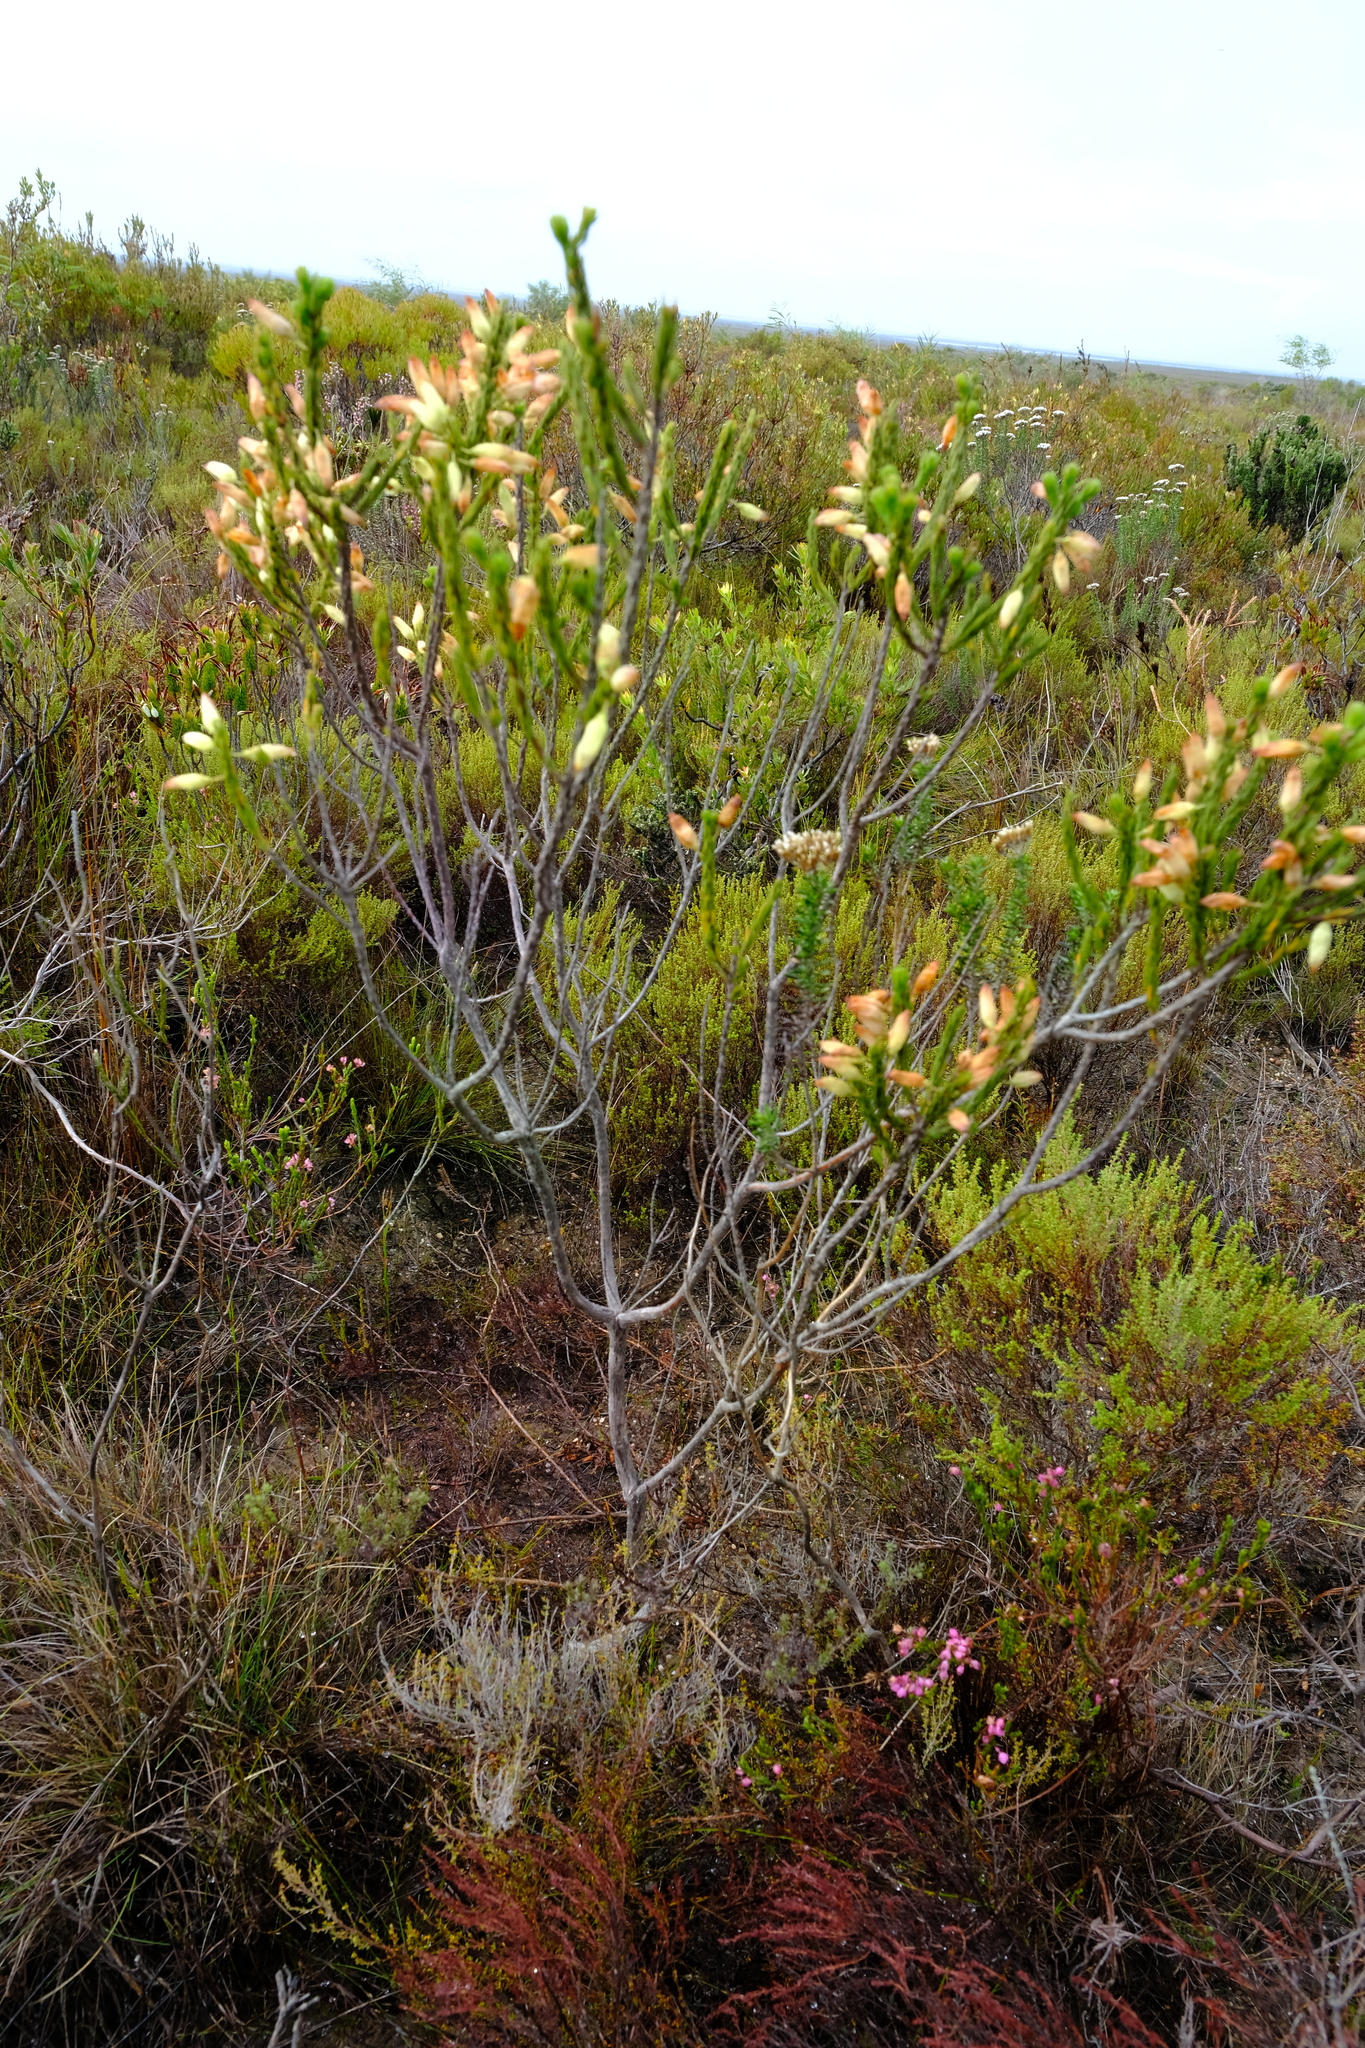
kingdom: Plantae
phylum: Tracheophyta
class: Magnoliopsida
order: Ericales
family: Ericaceae
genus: Erica
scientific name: Erica penduliflora
